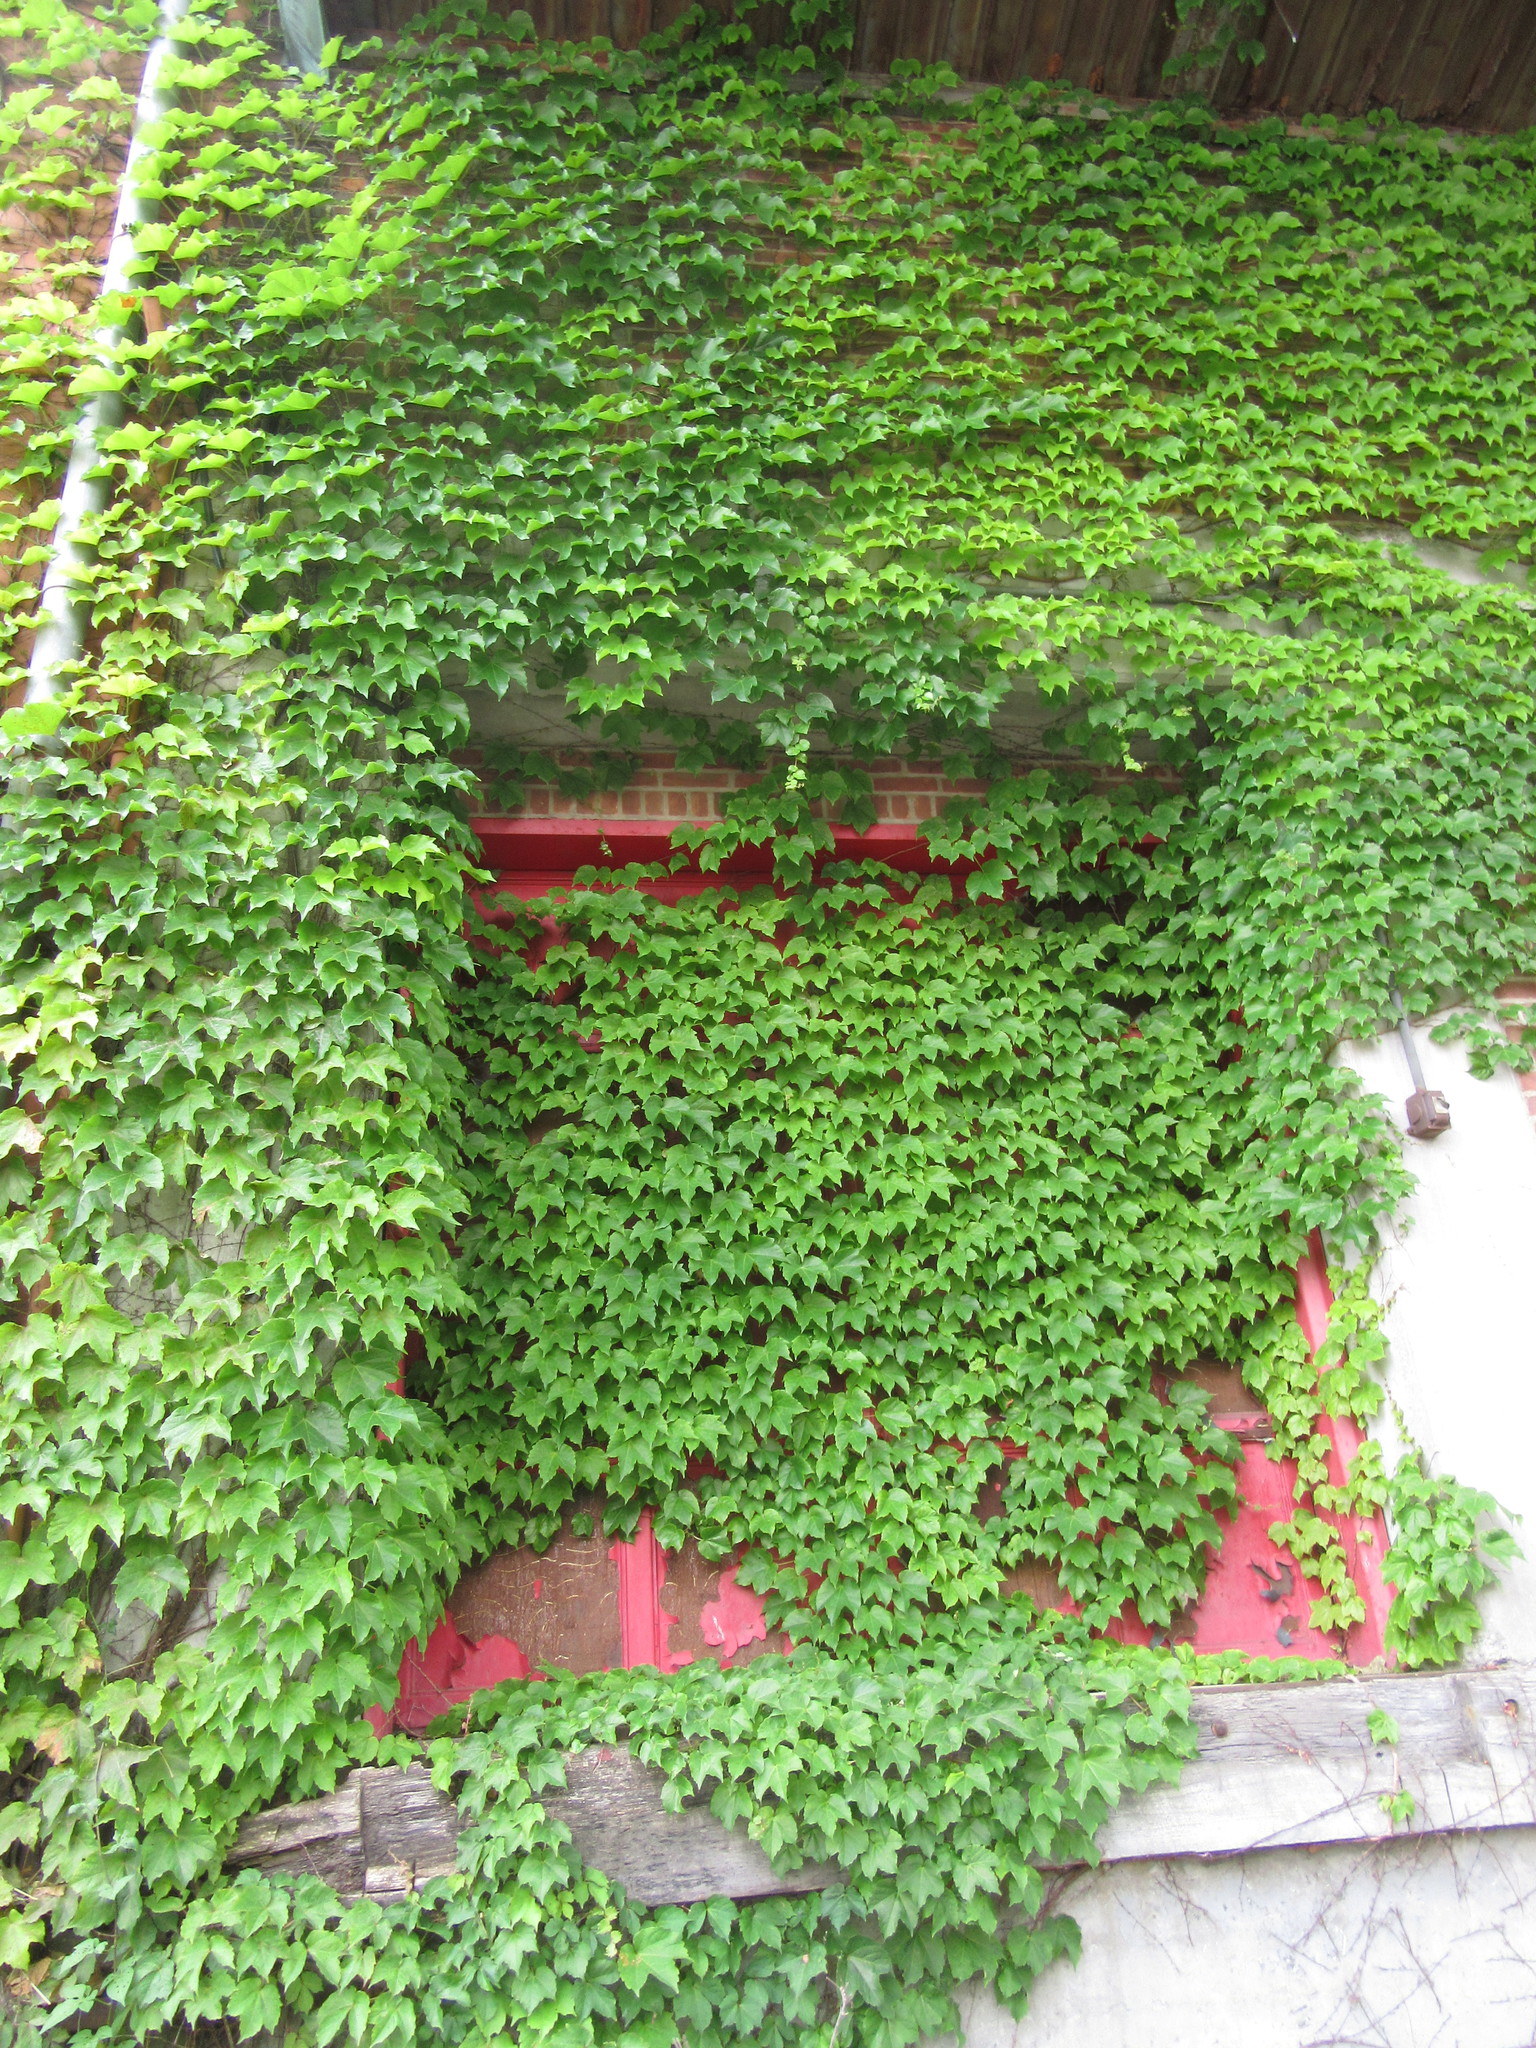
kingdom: Plantae
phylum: Tracheophyta
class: Magnoliopsida
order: Vitales
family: Vitaceae
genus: Parthenocissus
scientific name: Parthenocissus tricuspidata
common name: Boston ivy
